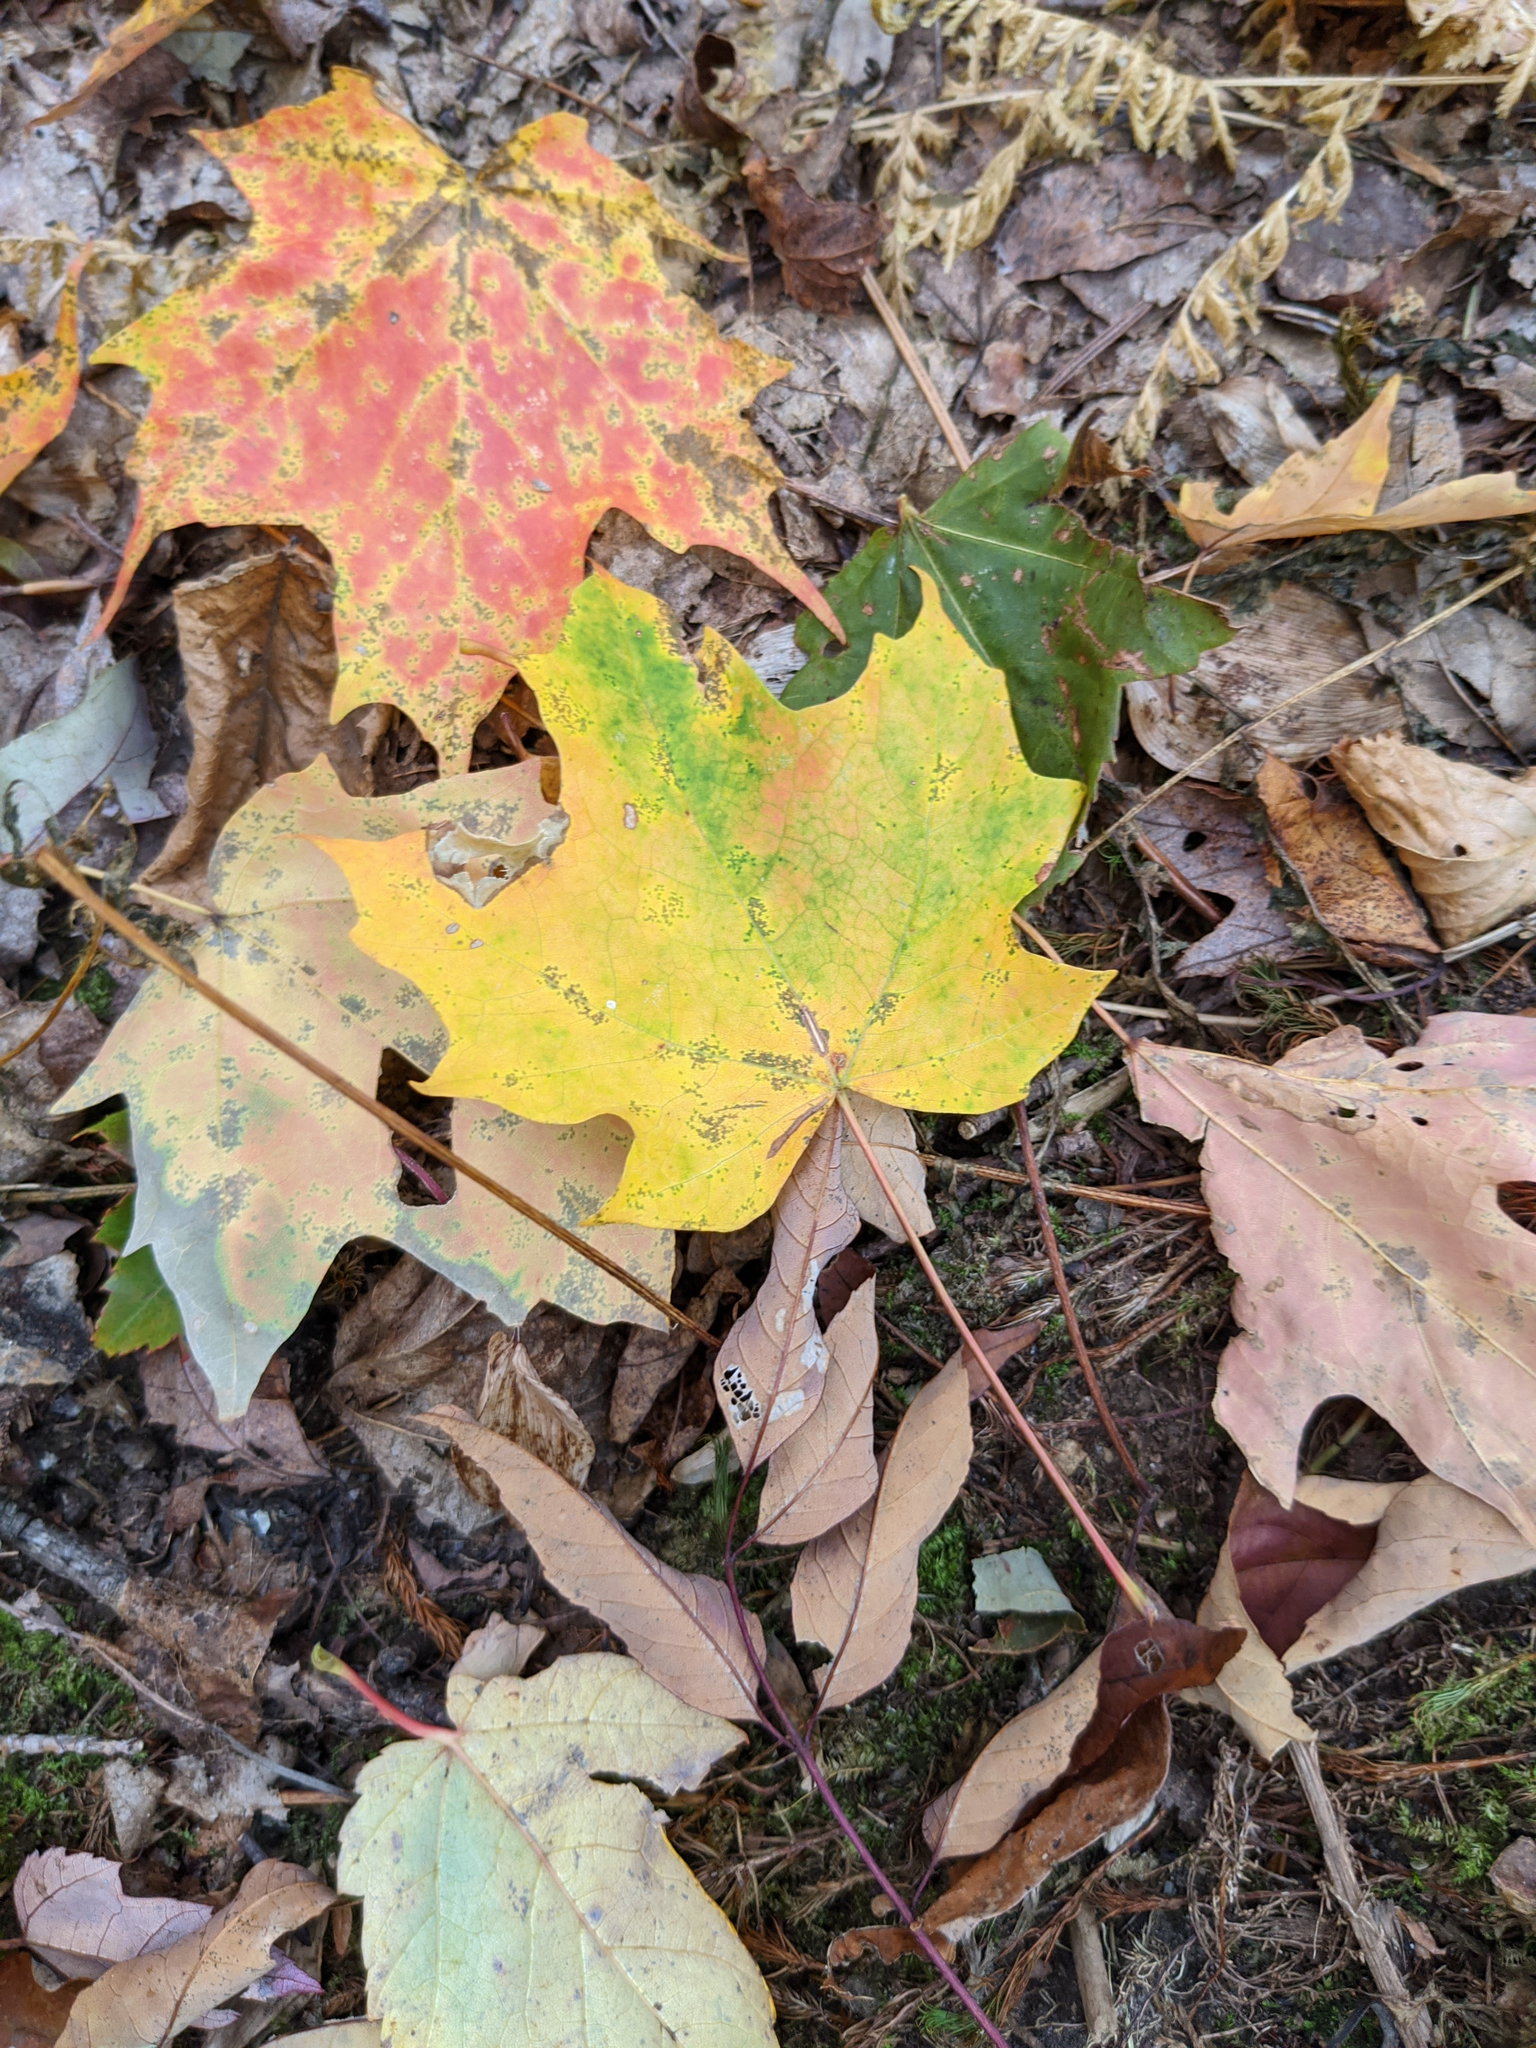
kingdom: Plantae
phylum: Tracheophyta
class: Magnoliopsida
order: Sapindales
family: Sapindaceae
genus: Acer
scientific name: Acer saccharum
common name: Sugar maple
